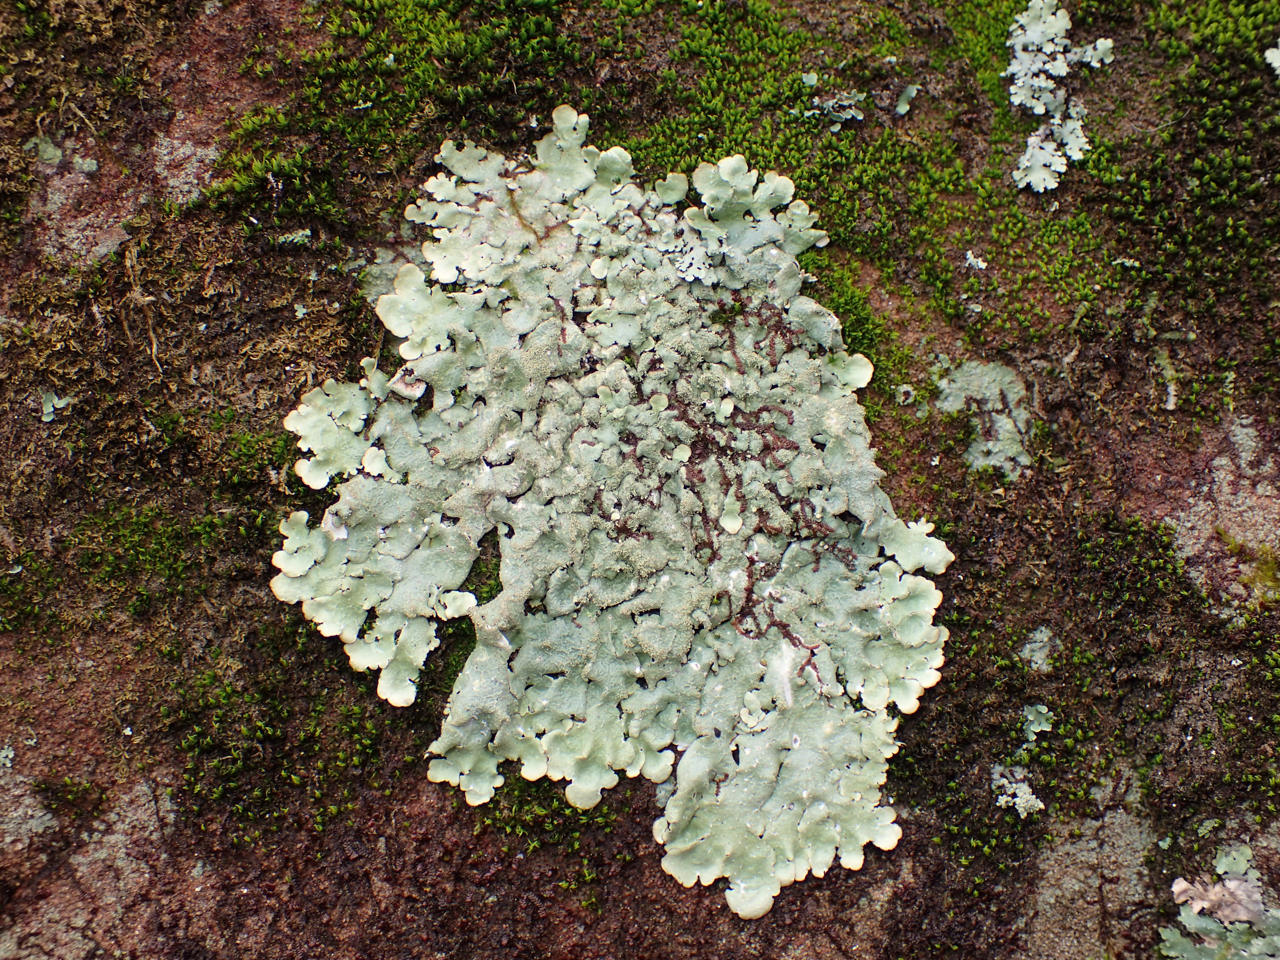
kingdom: Fungi
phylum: Ascomycota
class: Lecanoromycetes
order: Lecanorales
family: Parmeliaceae
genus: Canoparmelia
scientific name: Canoparmelia caroliniana
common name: Carolina shield lichen
